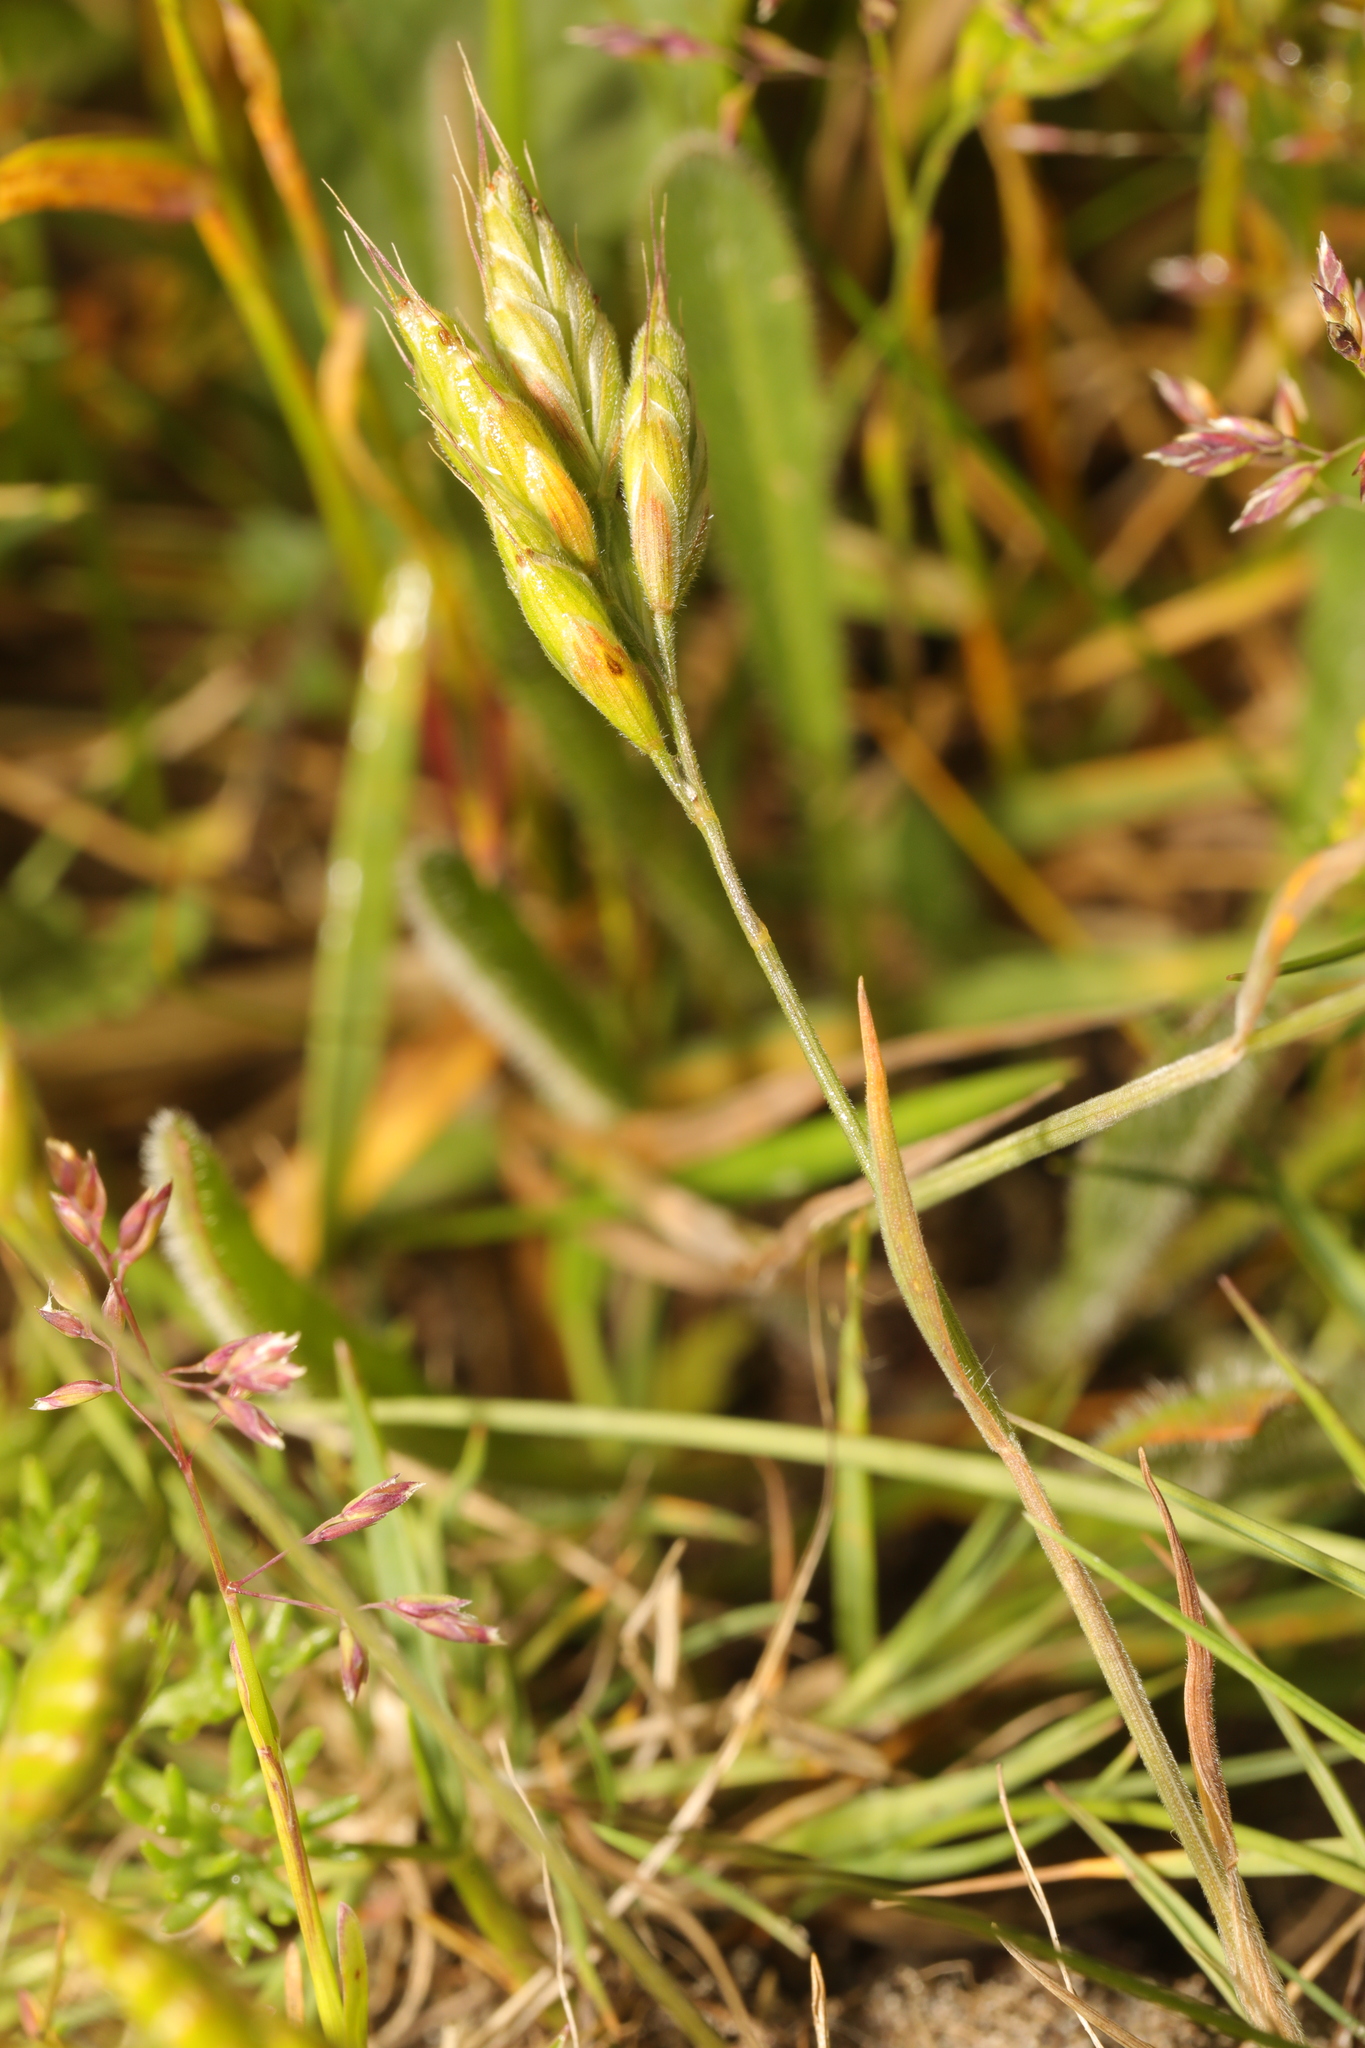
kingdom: Plantae
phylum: Tracheophyta
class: Liliopsida
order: Poales
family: Poaceae
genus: Bromus
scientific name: Bromus hordeaceus
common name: Soft brome
